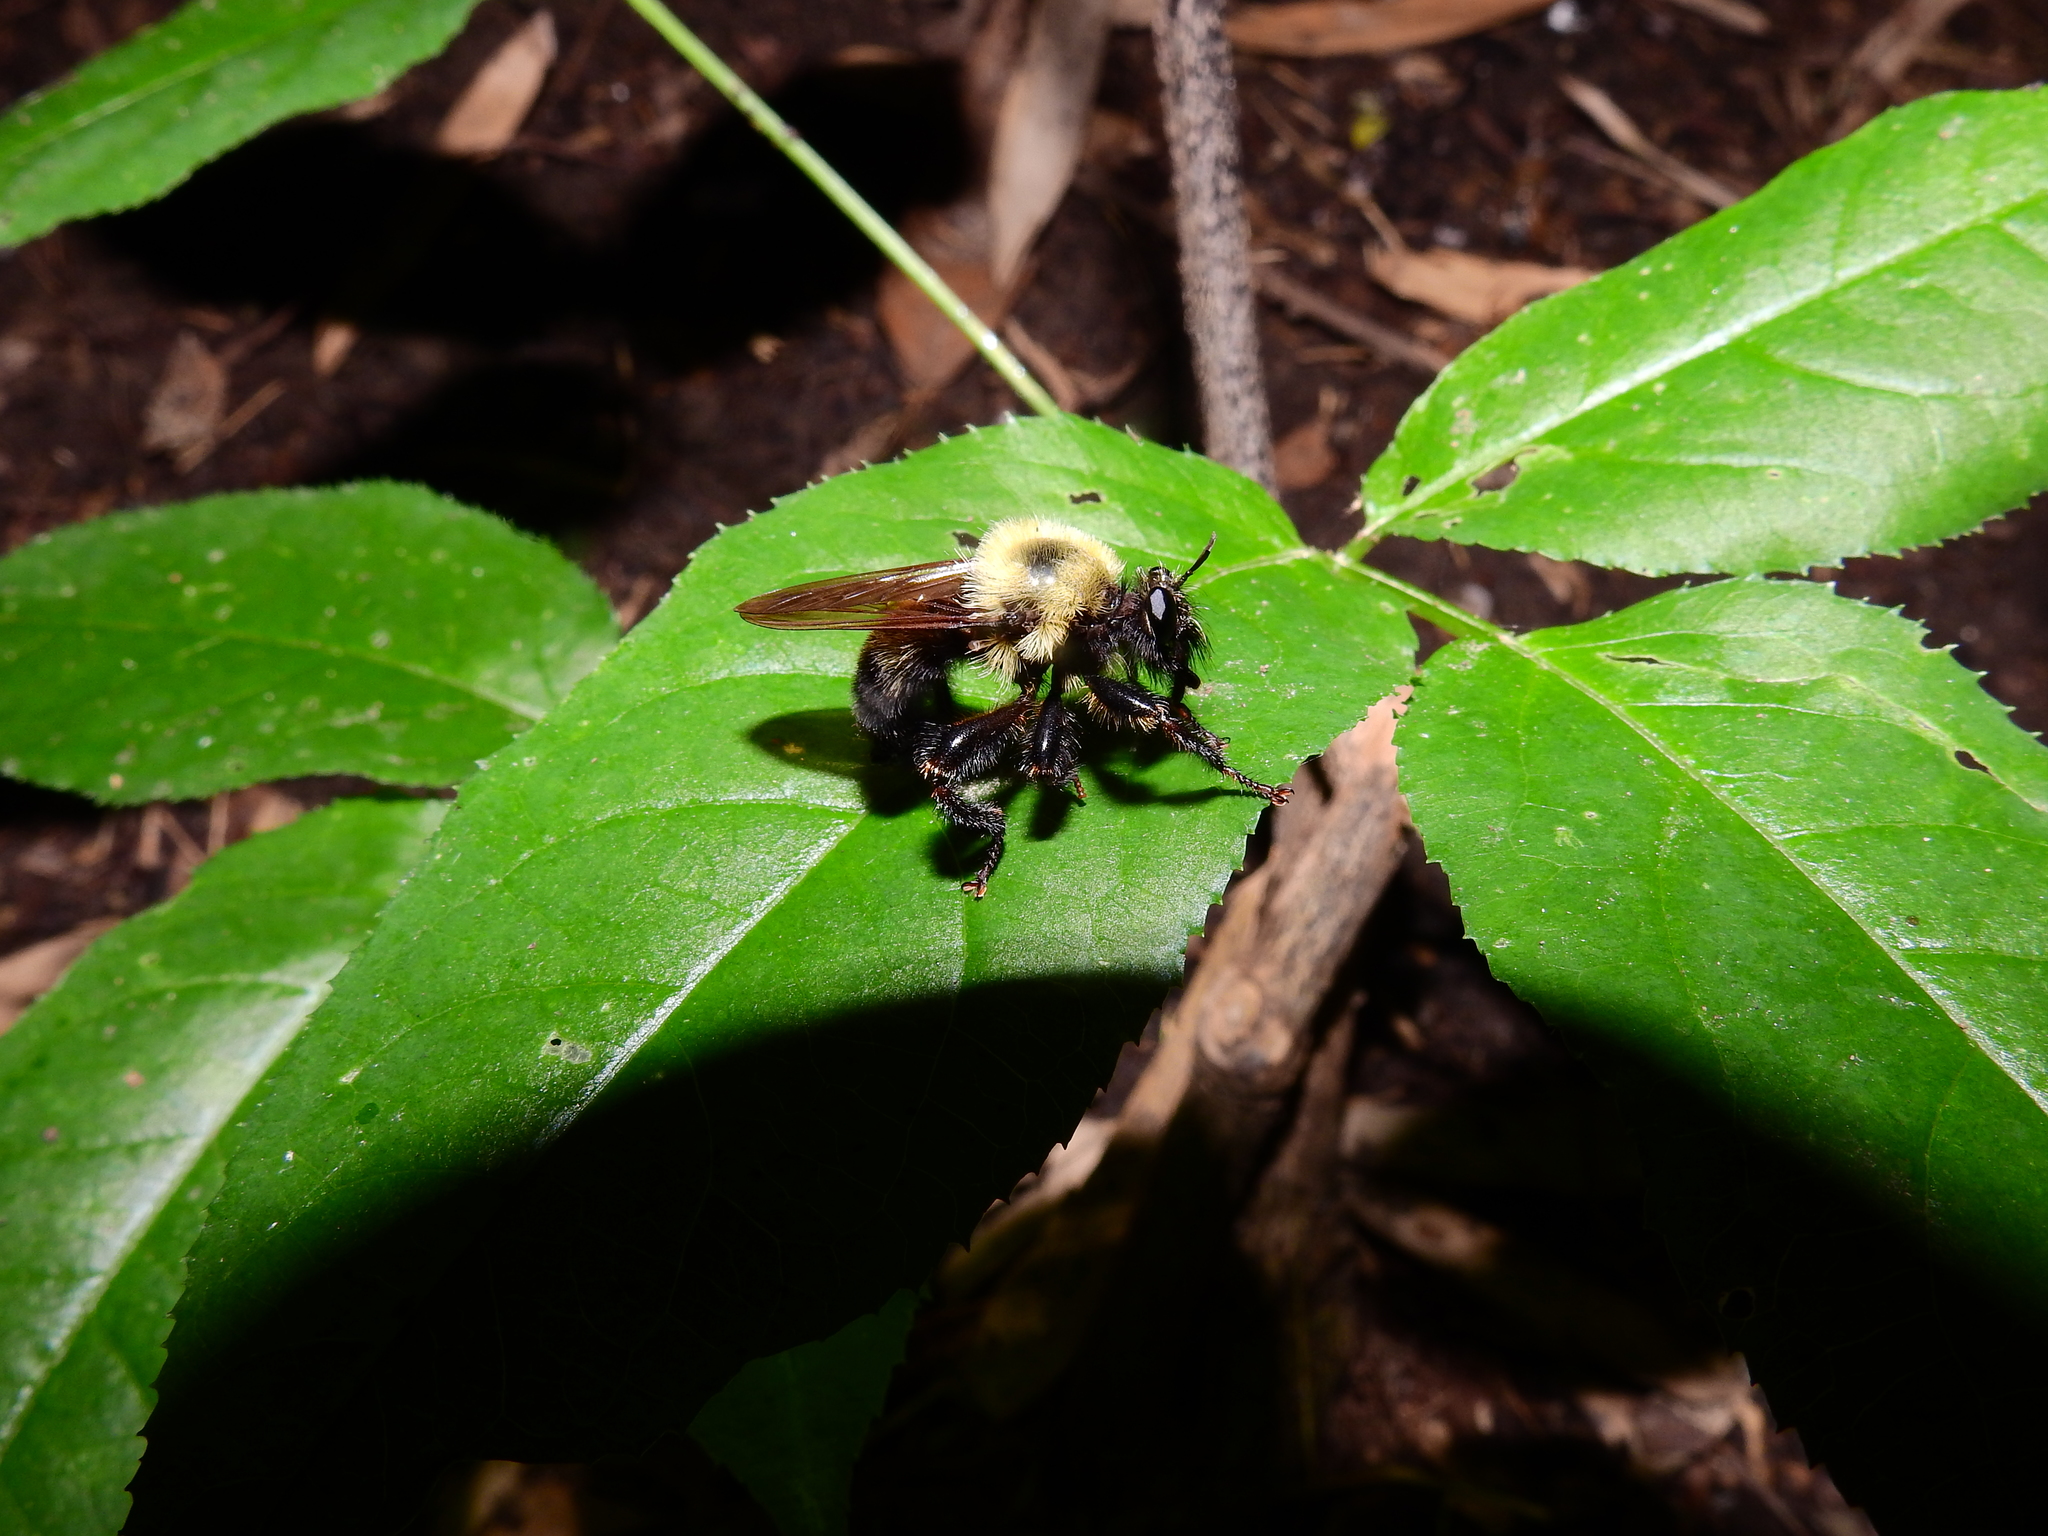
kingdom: Animalia
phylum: Arthropoda
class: Insecta
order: Diptera
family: Asilidae
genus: Laphria
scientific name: Laphria thoracica
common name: Bumble bee mimic robber fly
